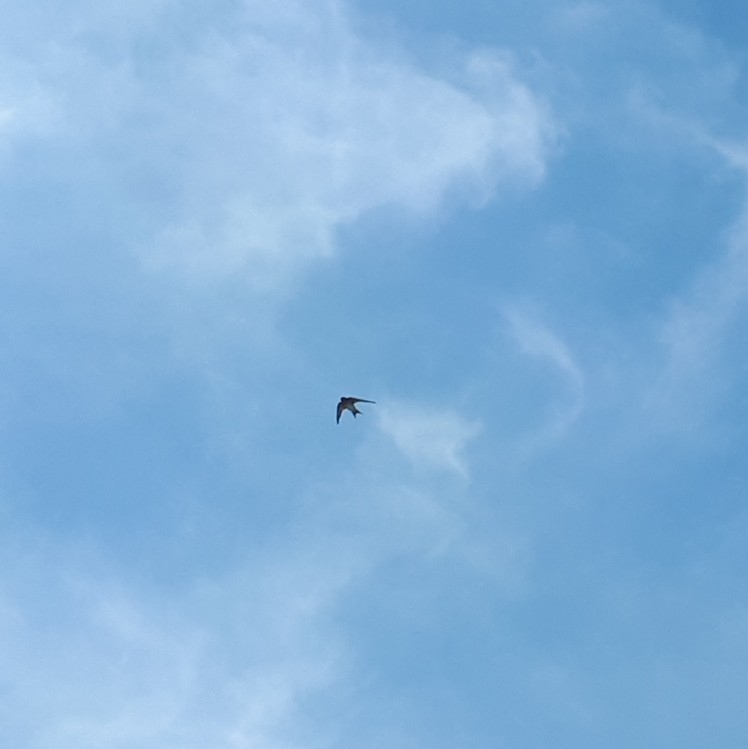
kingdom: Animalia
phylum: Chordata
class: Aves
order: Passeriformes
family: Hirundinidae
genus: Hirundo
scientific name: Hirundo neoxena
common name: Welcome swallow
